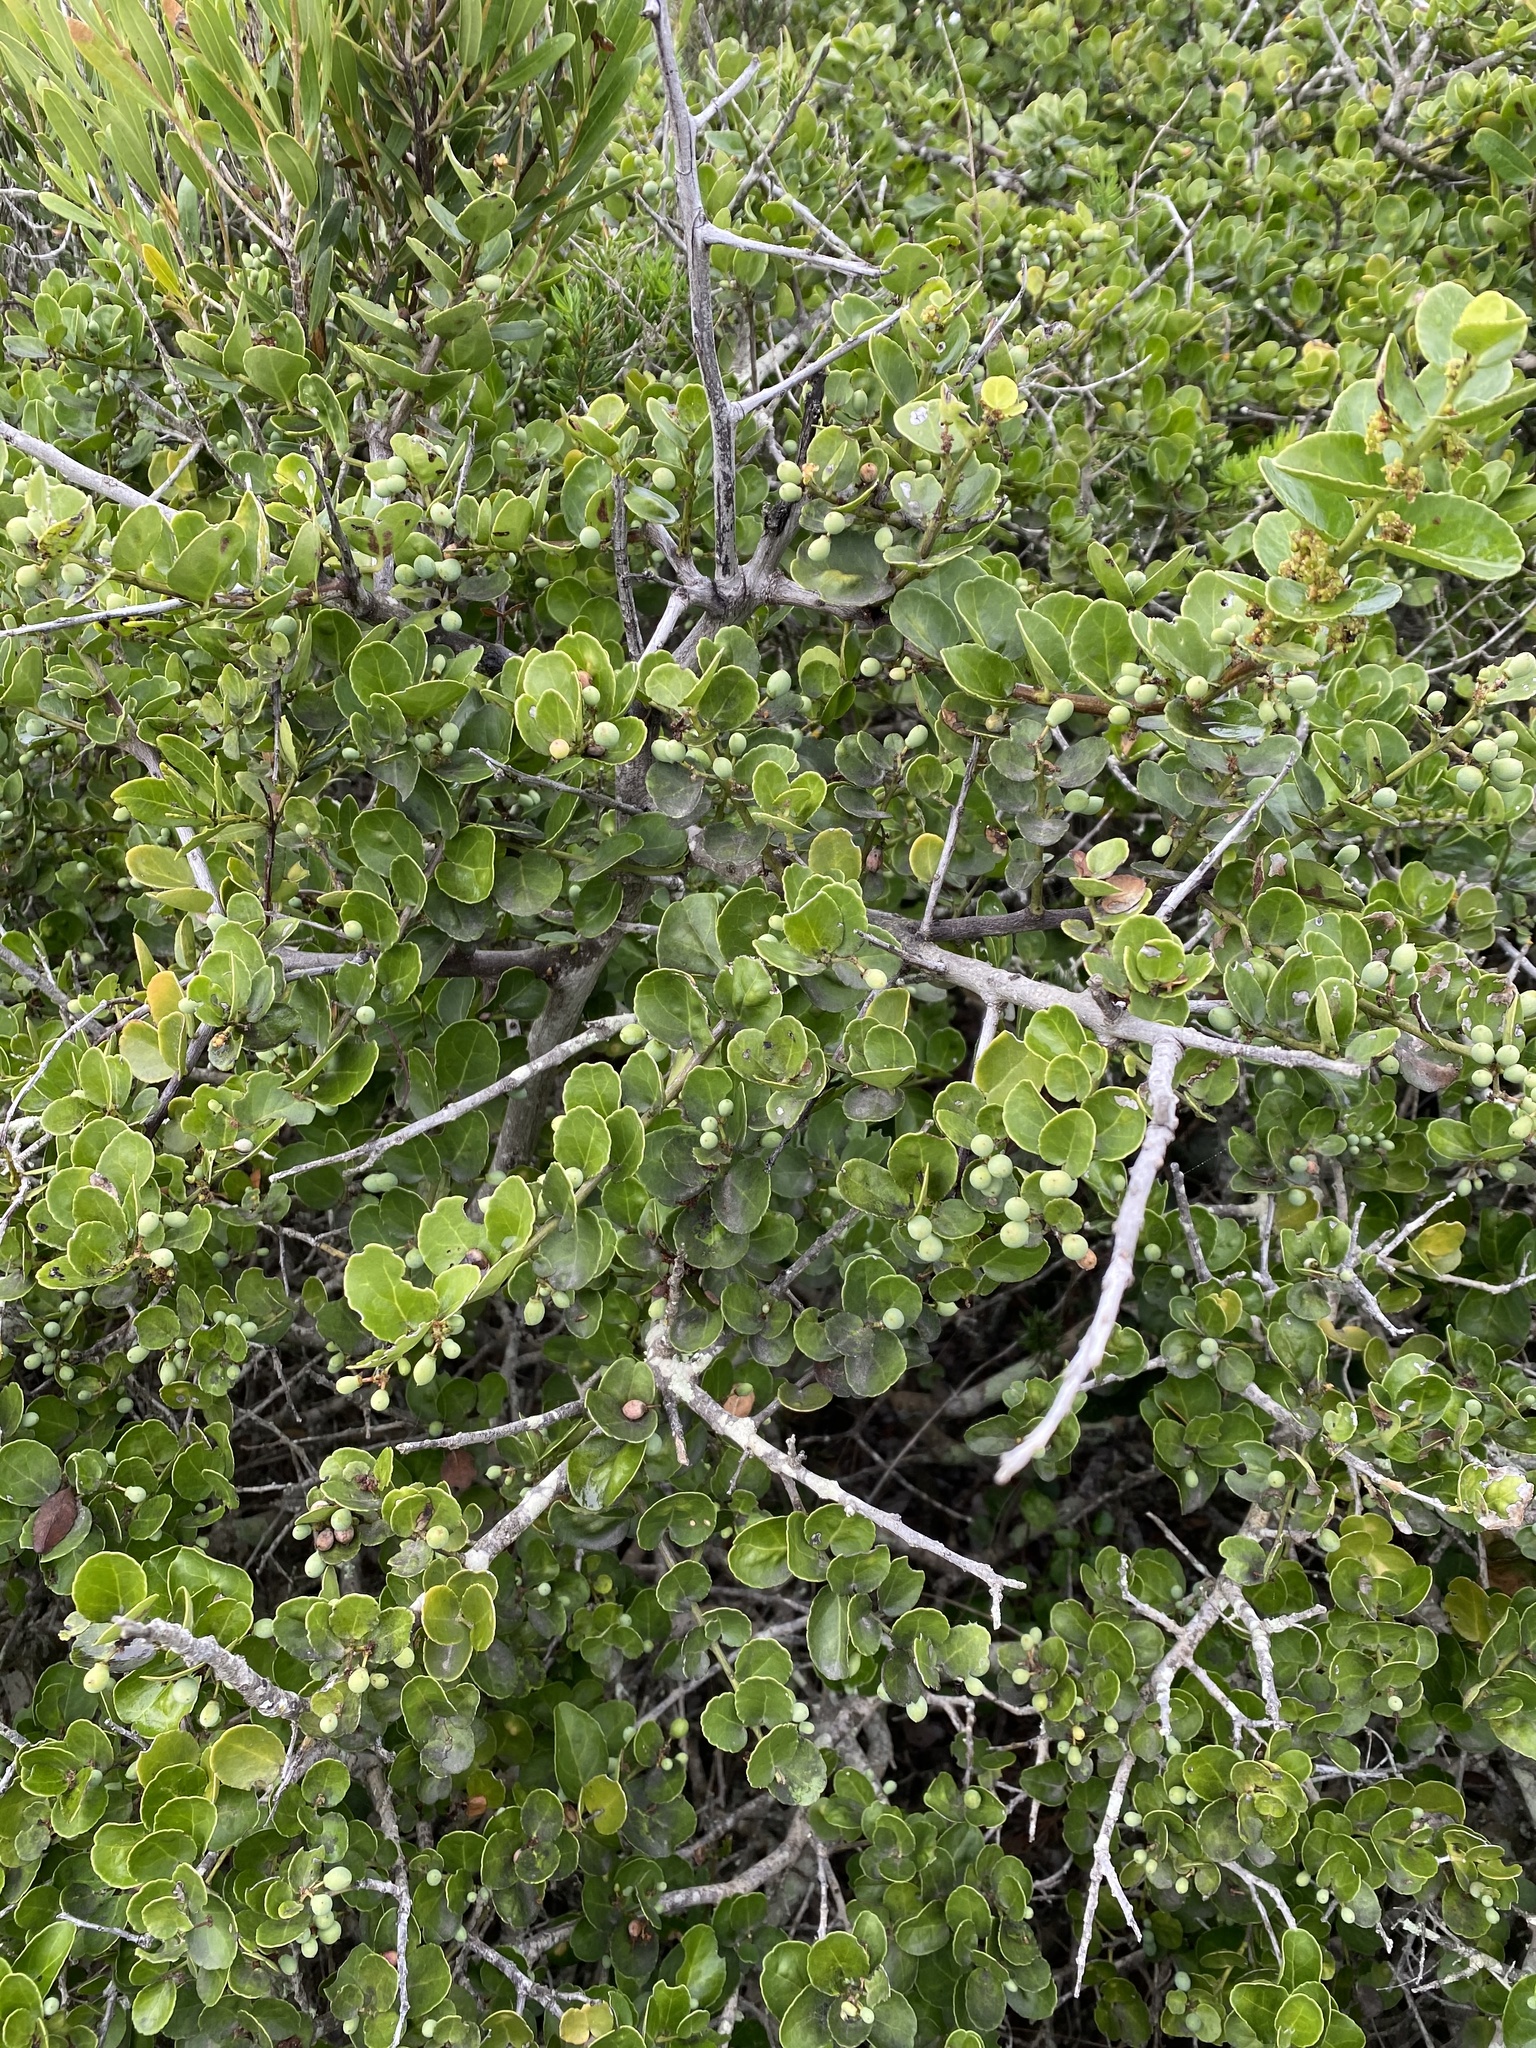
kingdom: Plantae
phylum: Tracheophyta
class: Magnoliopsida
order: Celastrales
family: Celastraceae
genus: Mystroxylon
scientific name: Mystroxylon aethiopicum
